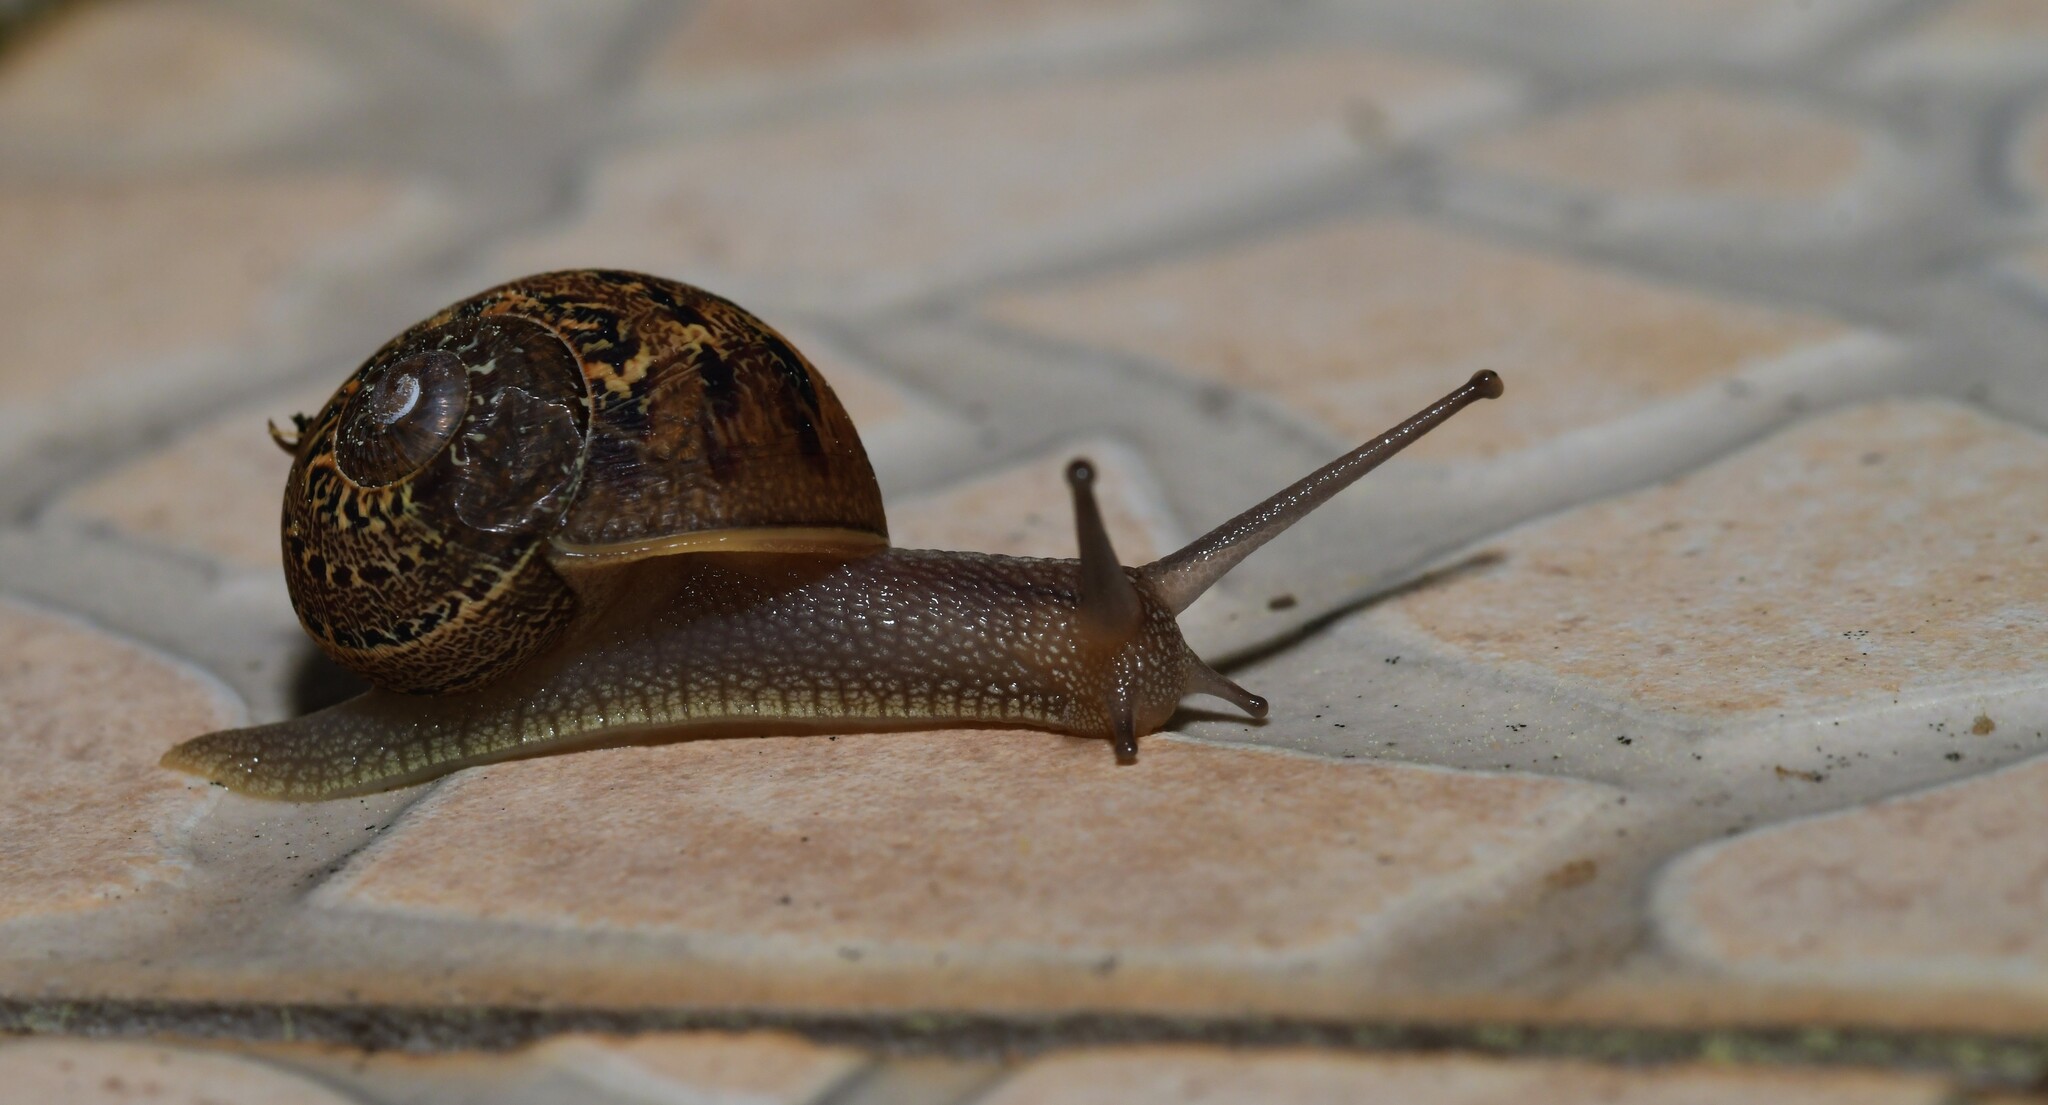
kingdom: Animalia
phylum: Mollusca
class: Gastropoda
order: Stylommatophora
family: Helicidae
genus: Cornu
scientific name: Cornu aspersum
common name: Brown garden snail
